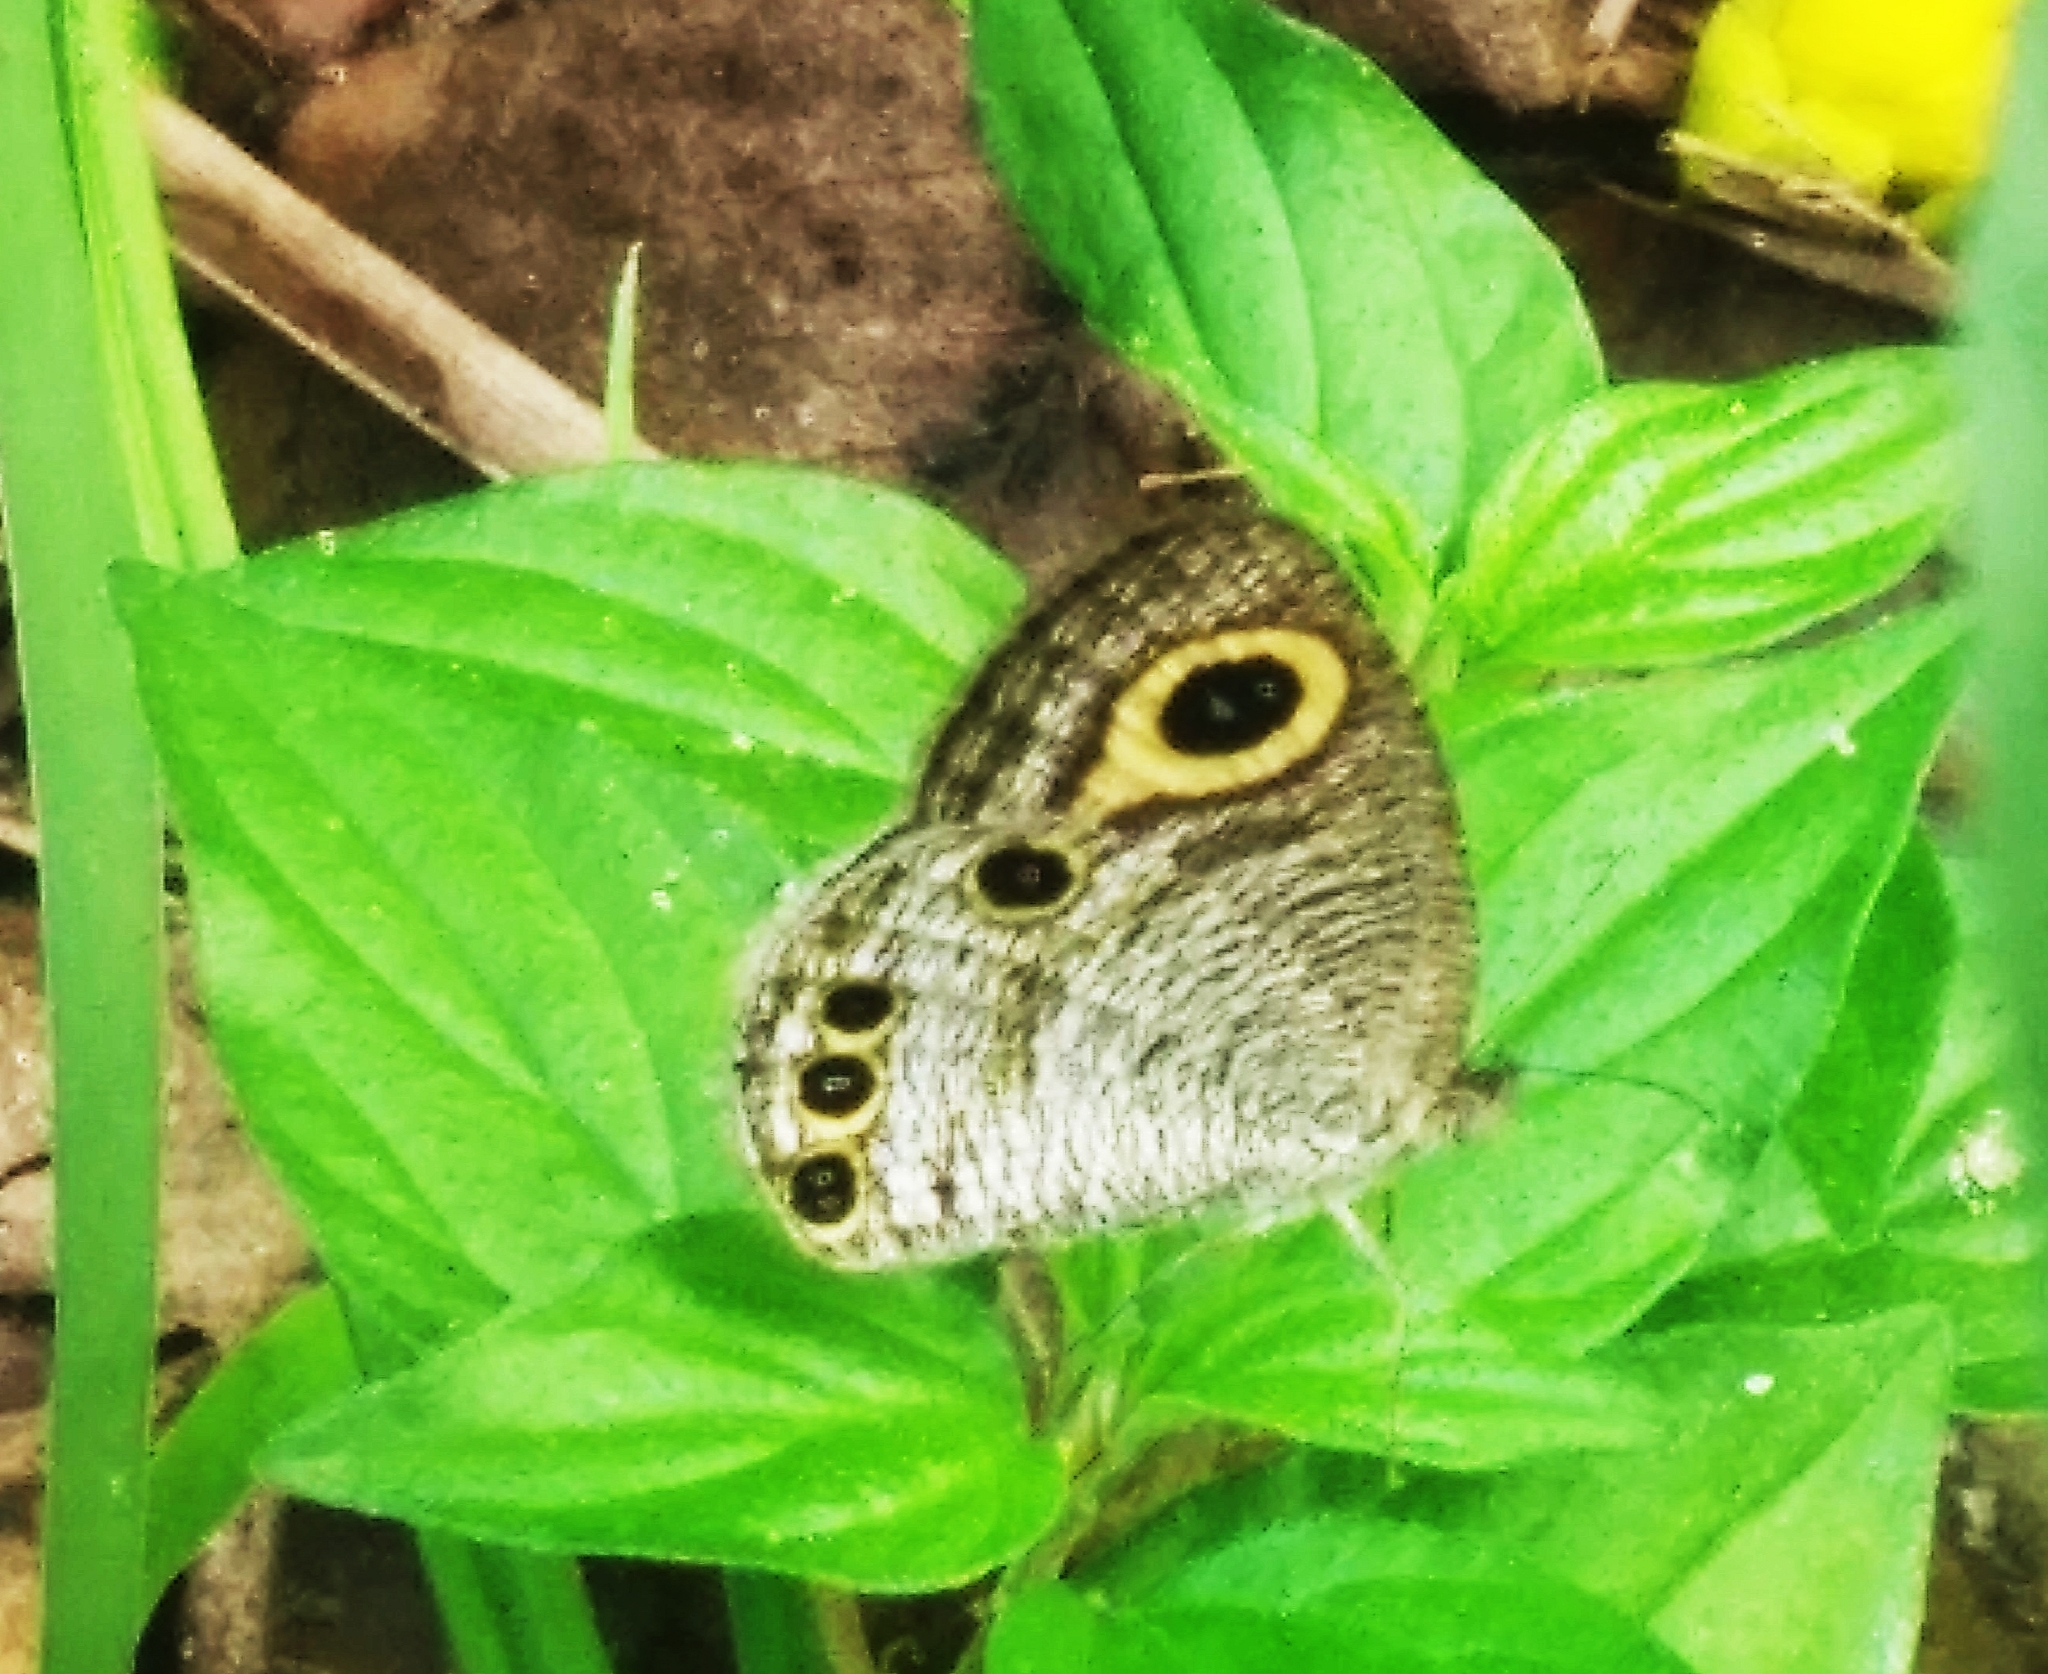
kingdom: Animalia
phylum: Arthropoda
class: Insecta
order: Lepidoptera
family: Nymphalidae
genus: Ypthima
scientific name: Ypthima huebneri
